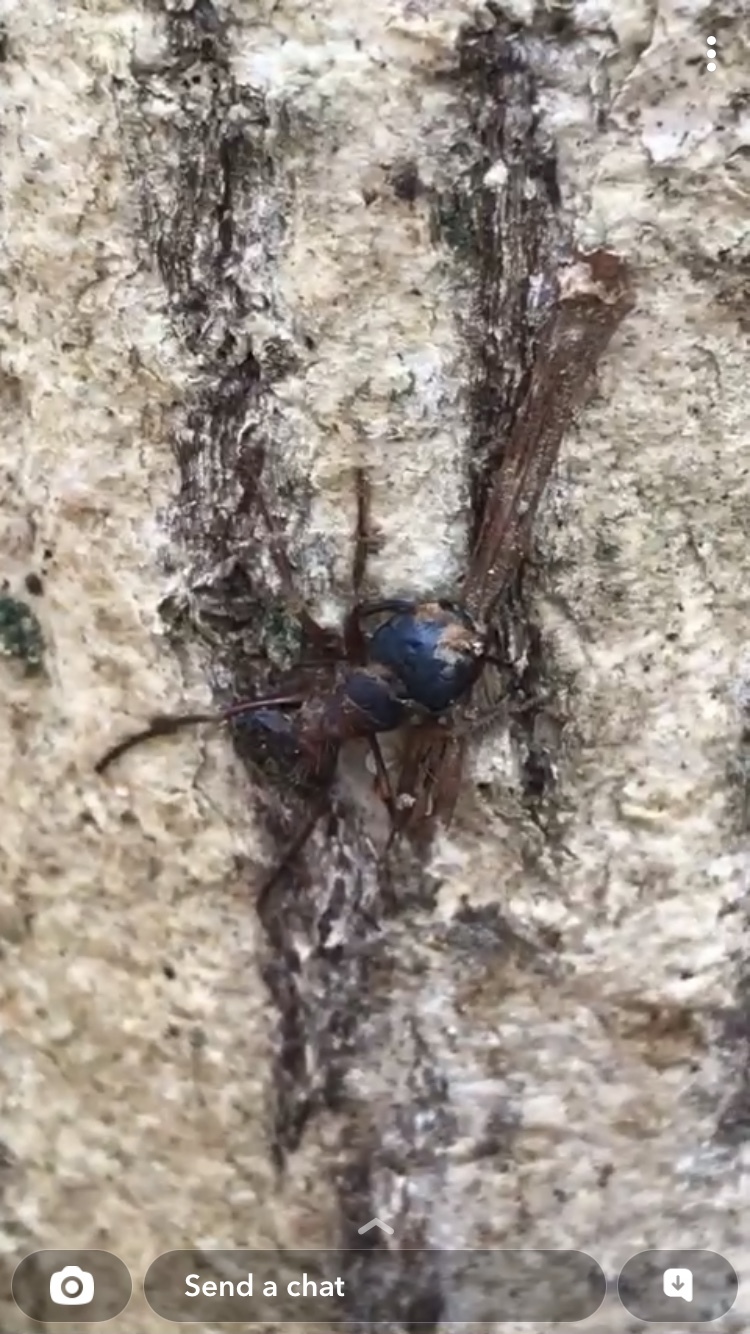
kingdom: Animalia
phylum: Arthropoda
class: Insecta
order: Hymenoptera
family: Formicidae
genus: Camponotus
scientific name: Camponotus chromaiodes
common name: Red carpenter ant
